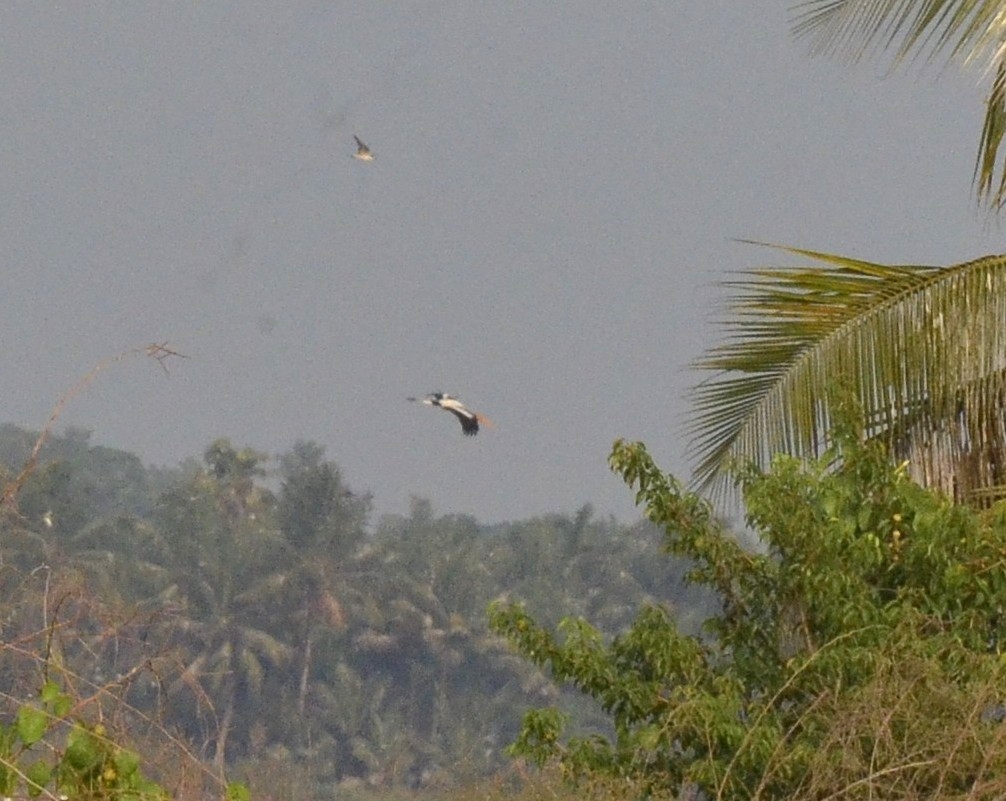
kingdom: Animalia
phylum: Chordata
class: Aves
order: Ciconiiformes
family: Ciconiidae
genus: Mycteria
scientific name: Mycteria leucocephala
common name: Painted stork
